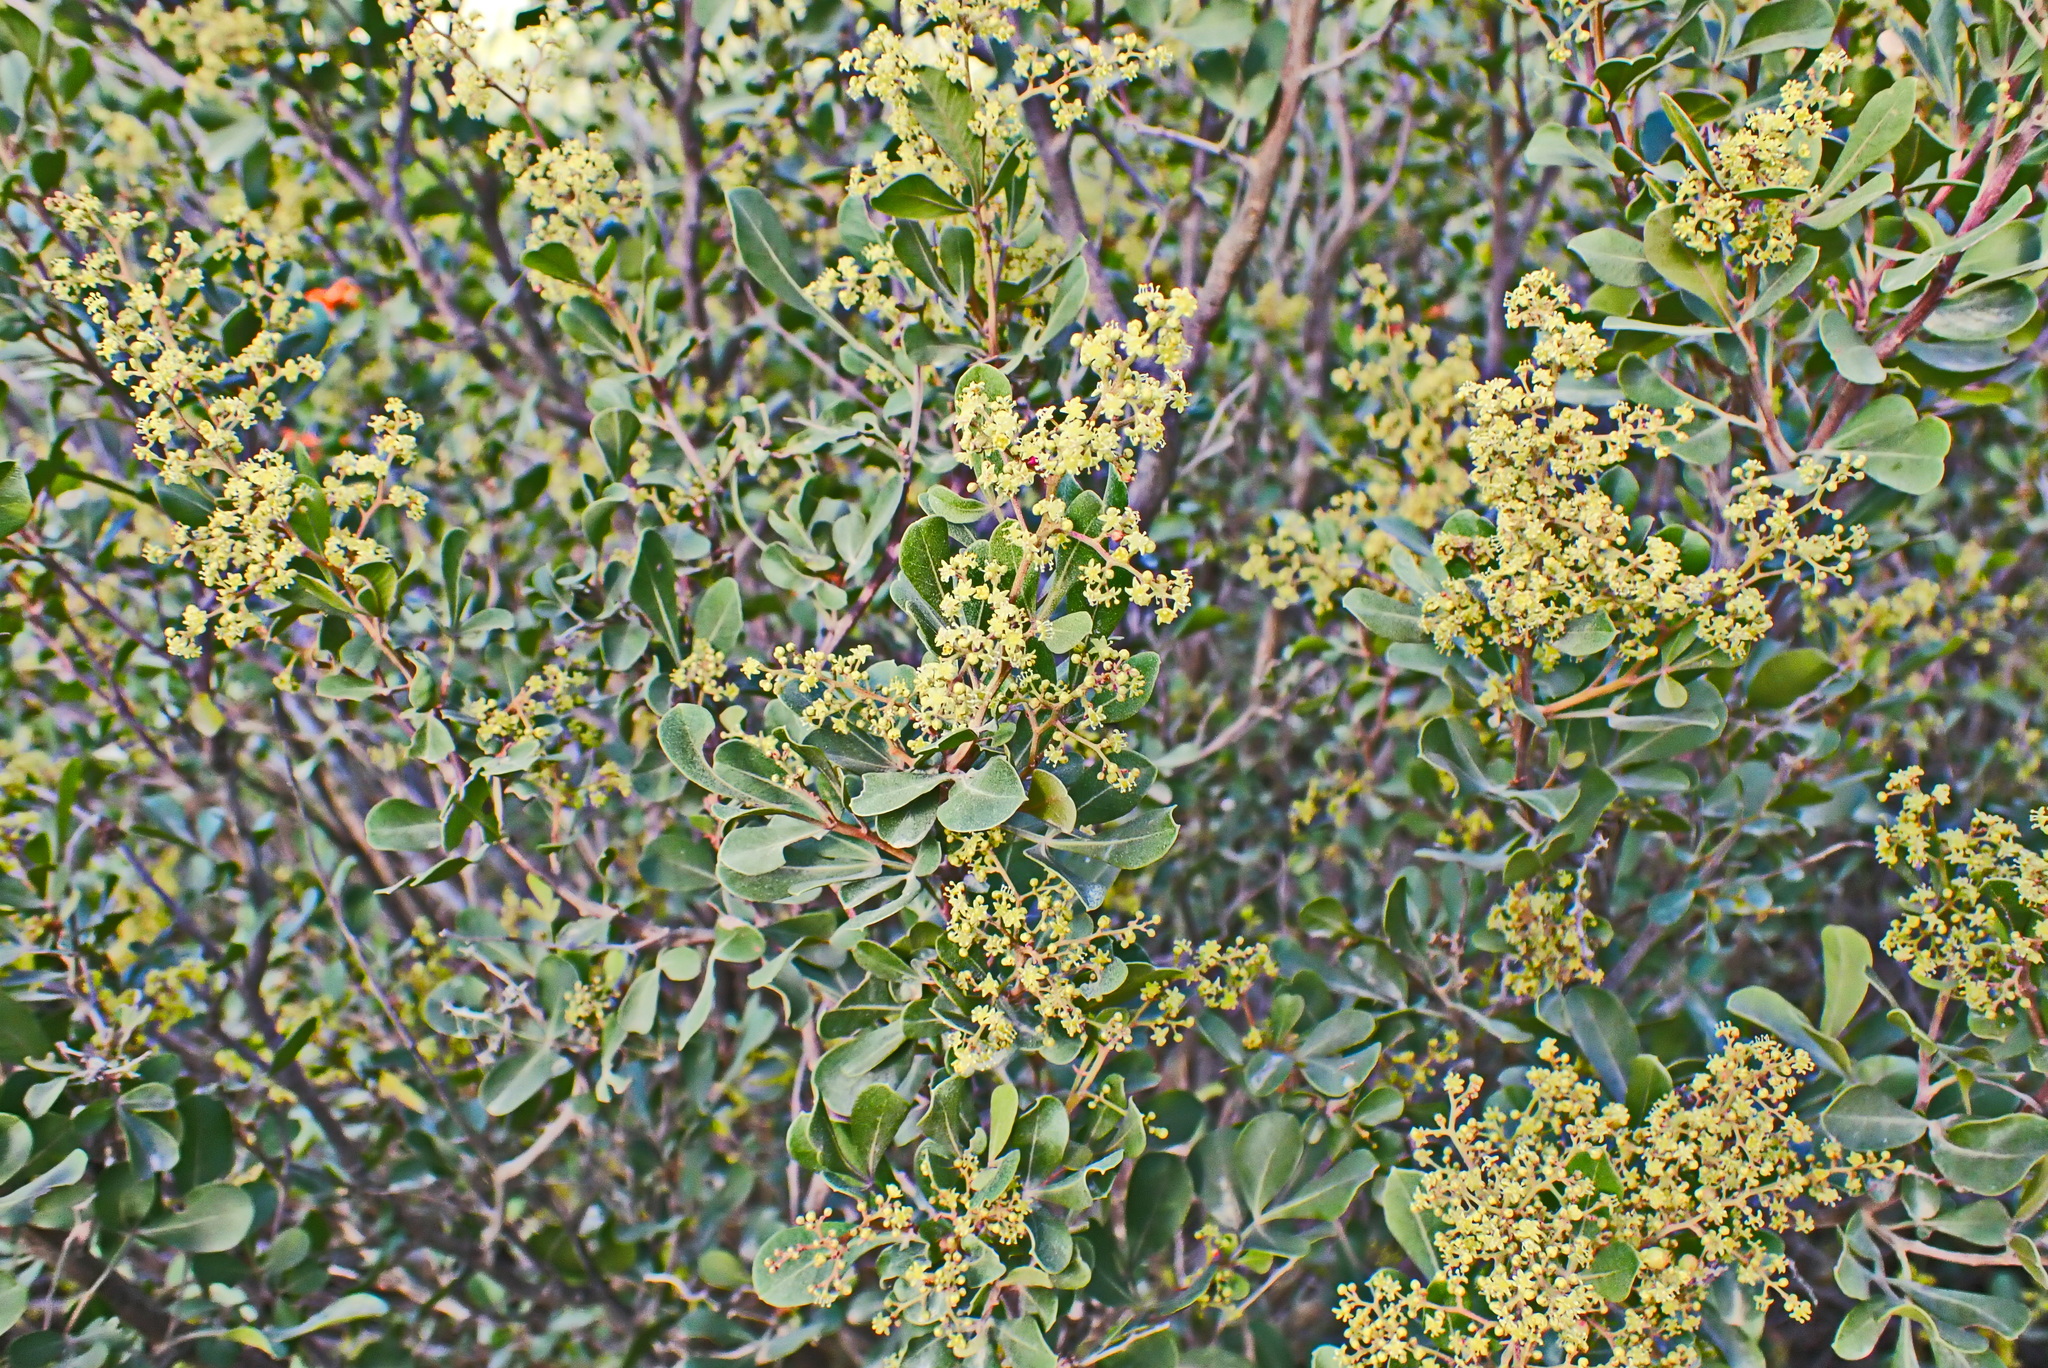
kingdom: Plantae
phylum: Tracheophyta
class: Magnoliopsida
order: Sapindales
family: Anacardiaceae
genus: Searsia
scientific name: Searsia pallens
